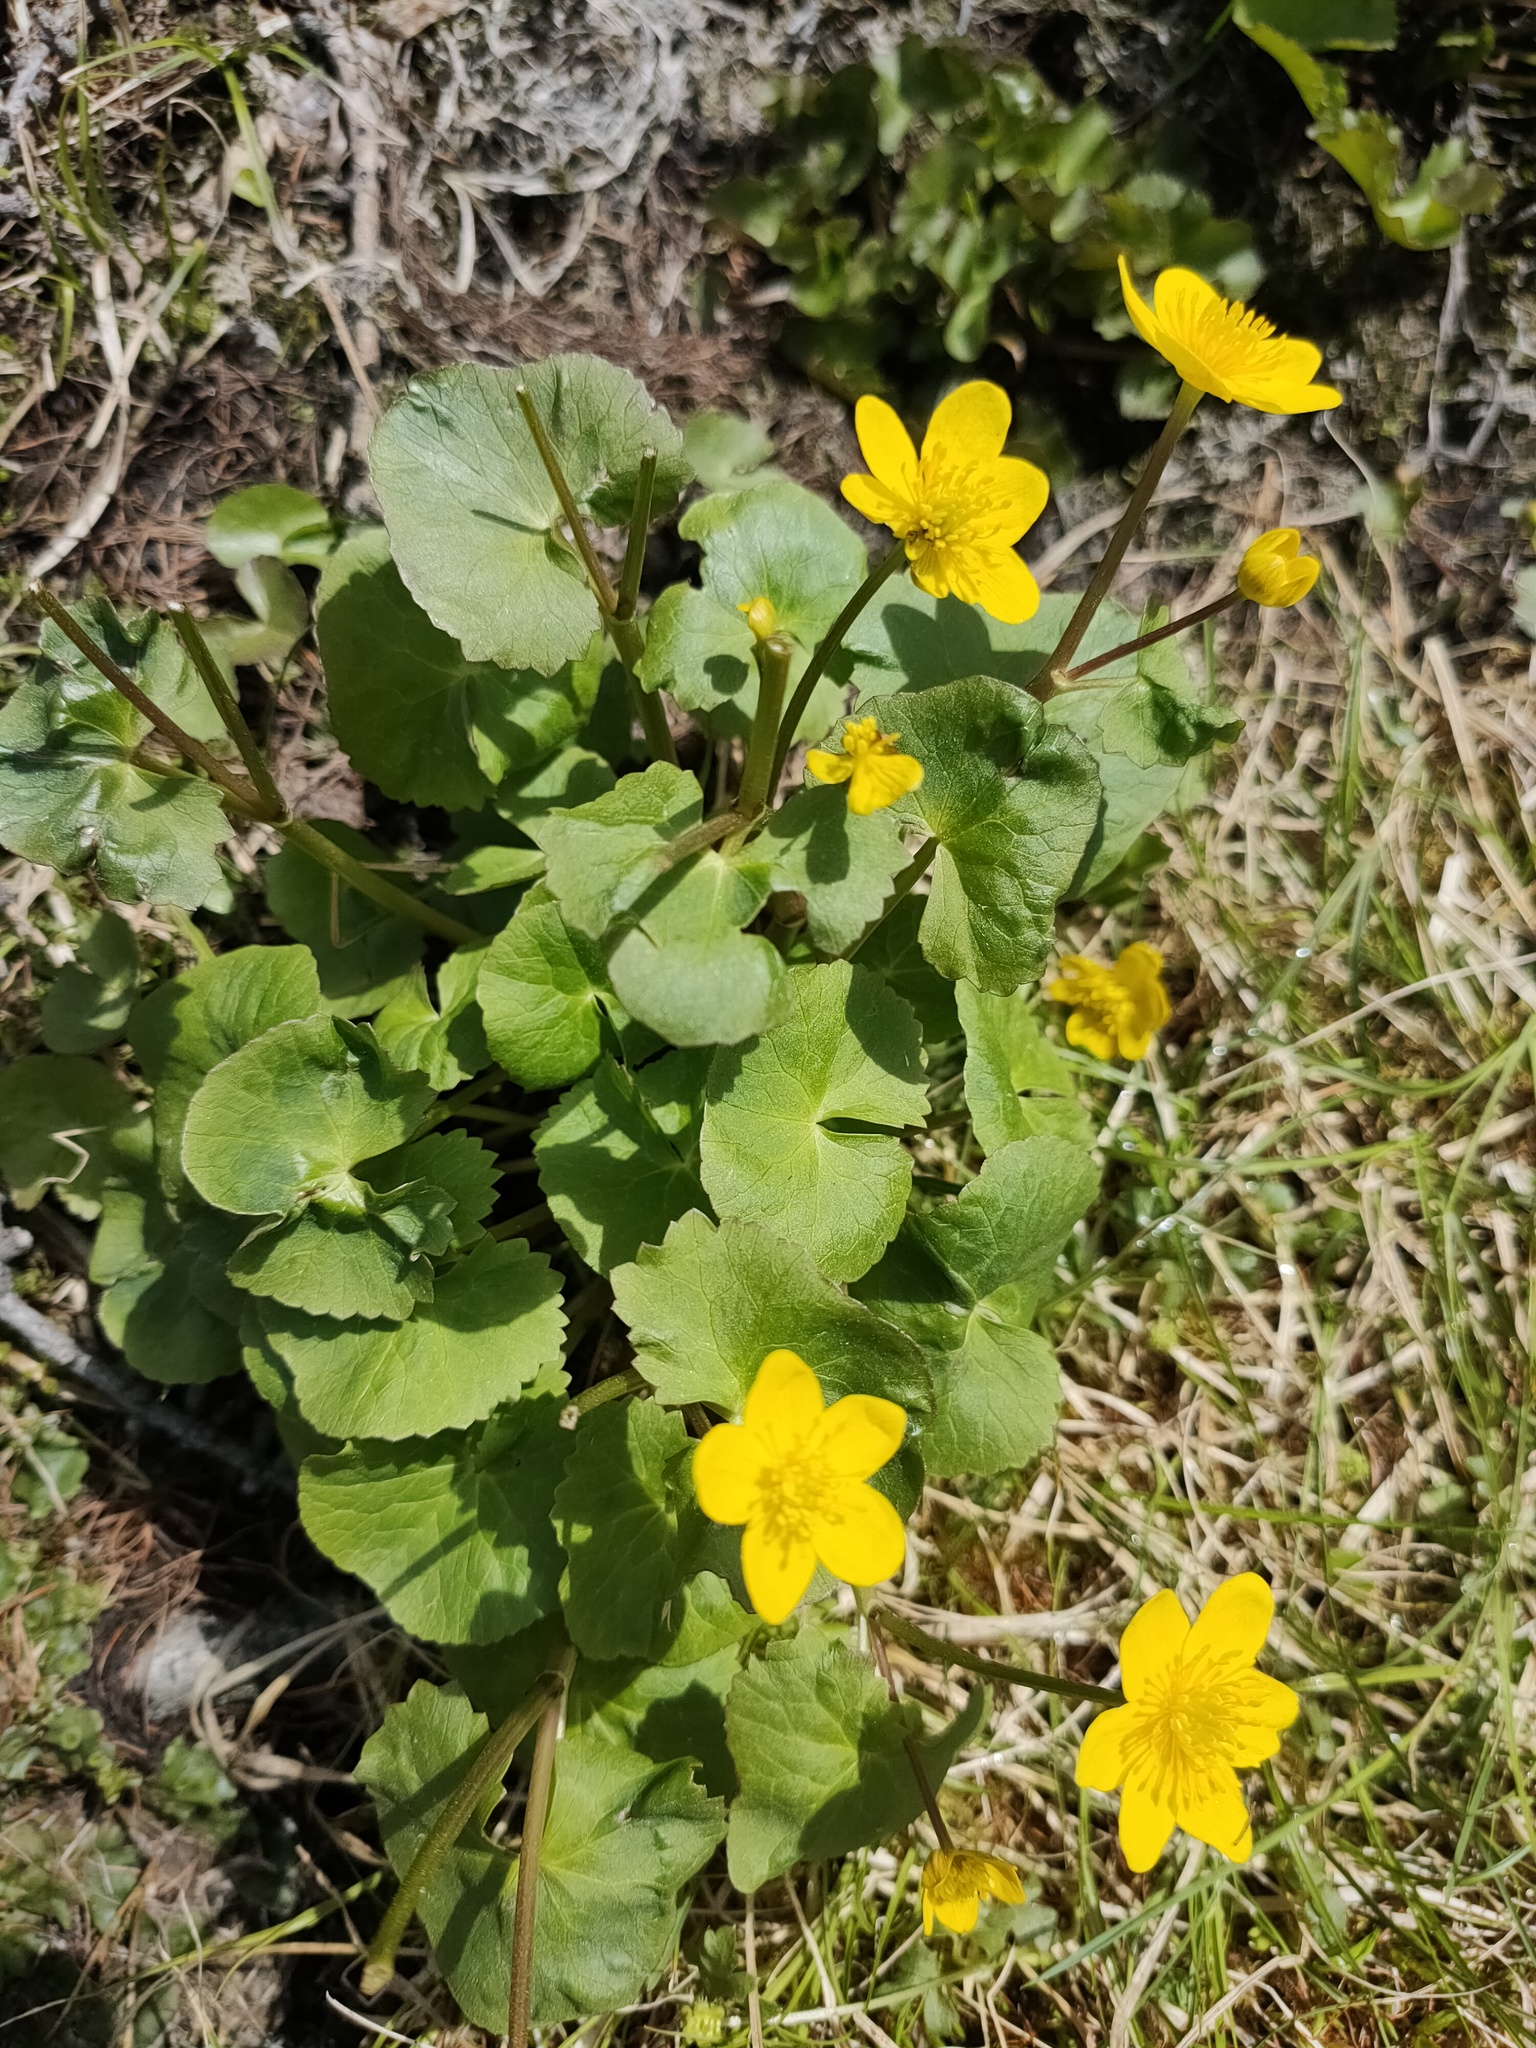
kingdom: Plantae
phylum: Tracheophyta
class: Magnoliopsida
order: Ranunculales
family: Ranunculaceae
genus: Caltha
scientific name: Caltha palustris
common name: Marsh marigold
